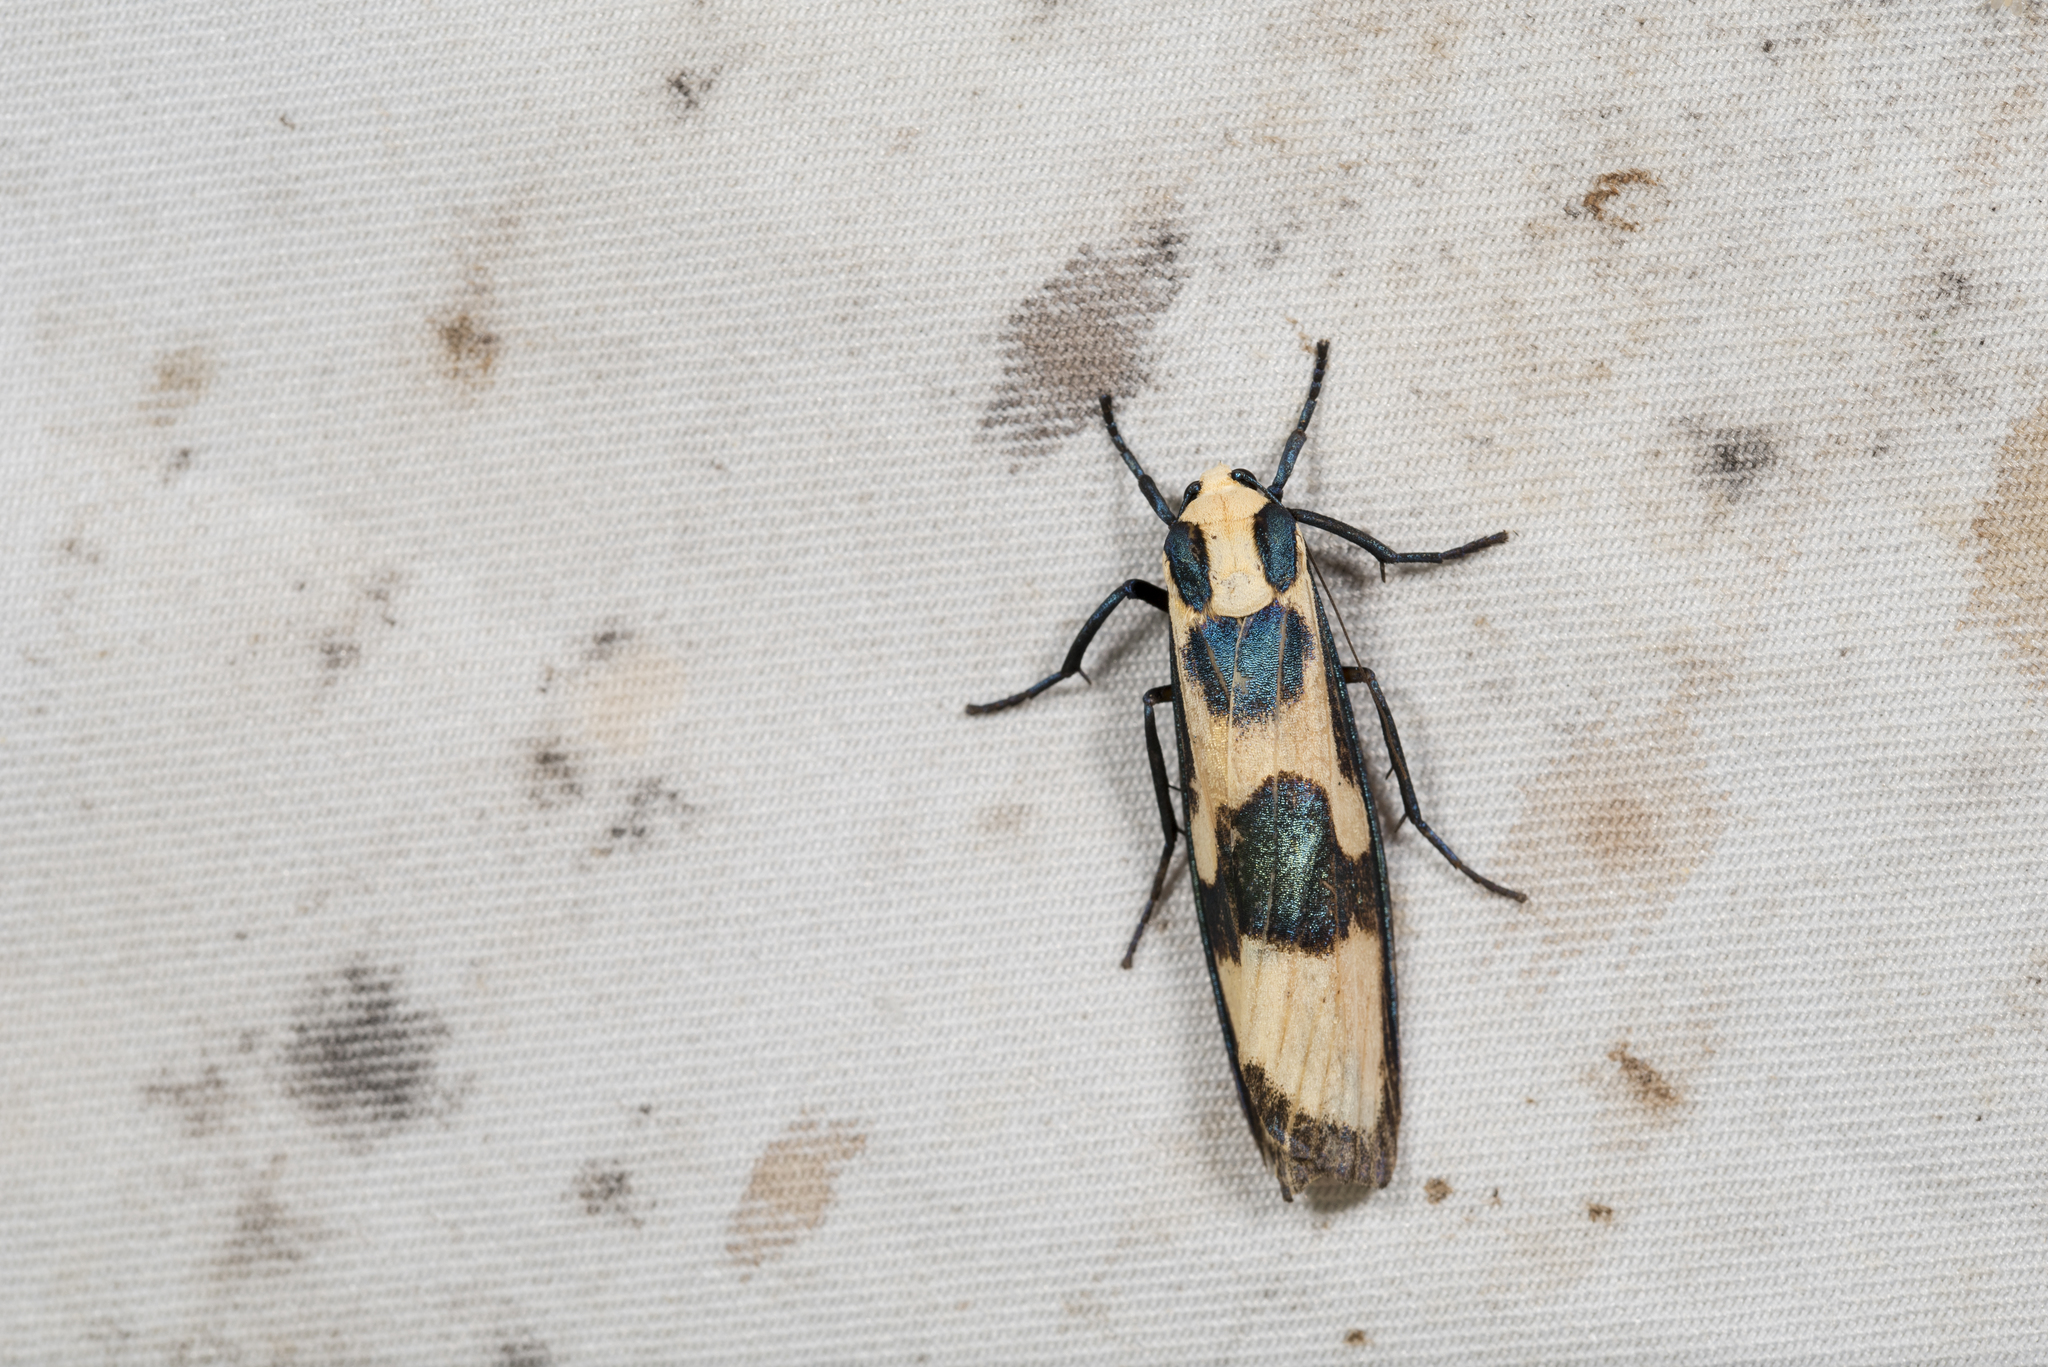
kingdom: Animalia
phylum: Arthropoda
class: Insecta
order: Lepidoptera
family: Erebidae
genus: Chrysaeglia
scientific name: Chrysaeglia magnifica
